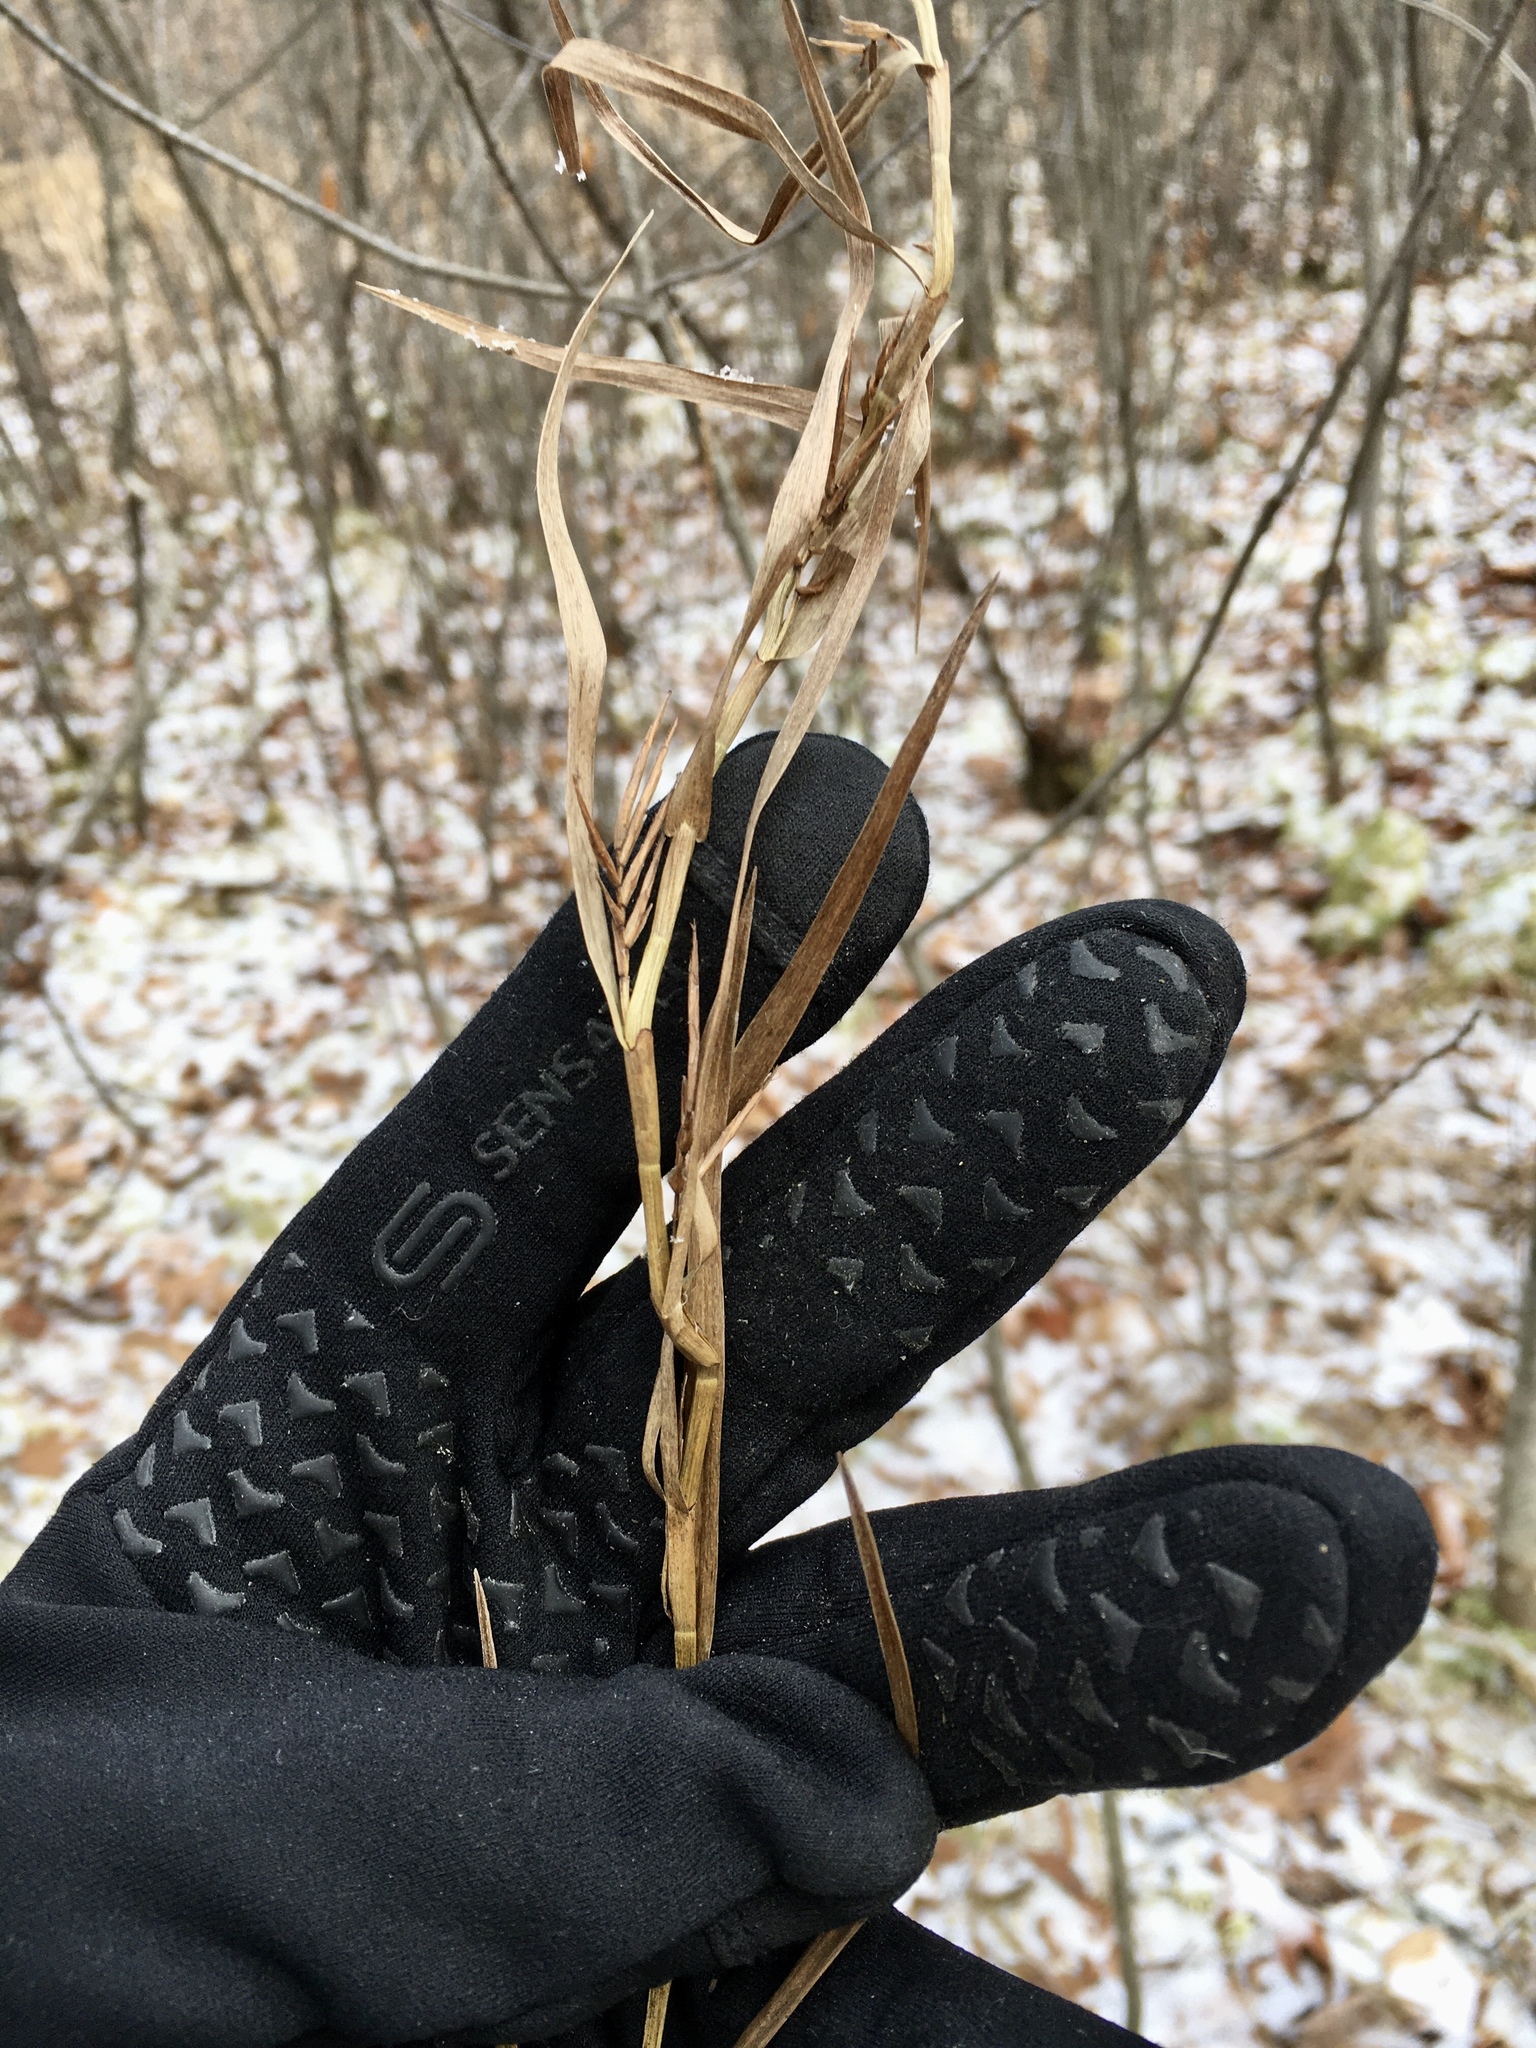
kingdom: Plantae
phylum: Tracheophyta
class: Liliopsida
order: Poales
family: Cyperaceae
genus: Dulichium
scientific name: Dulichium arundinaceum
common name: Three-way sedge
